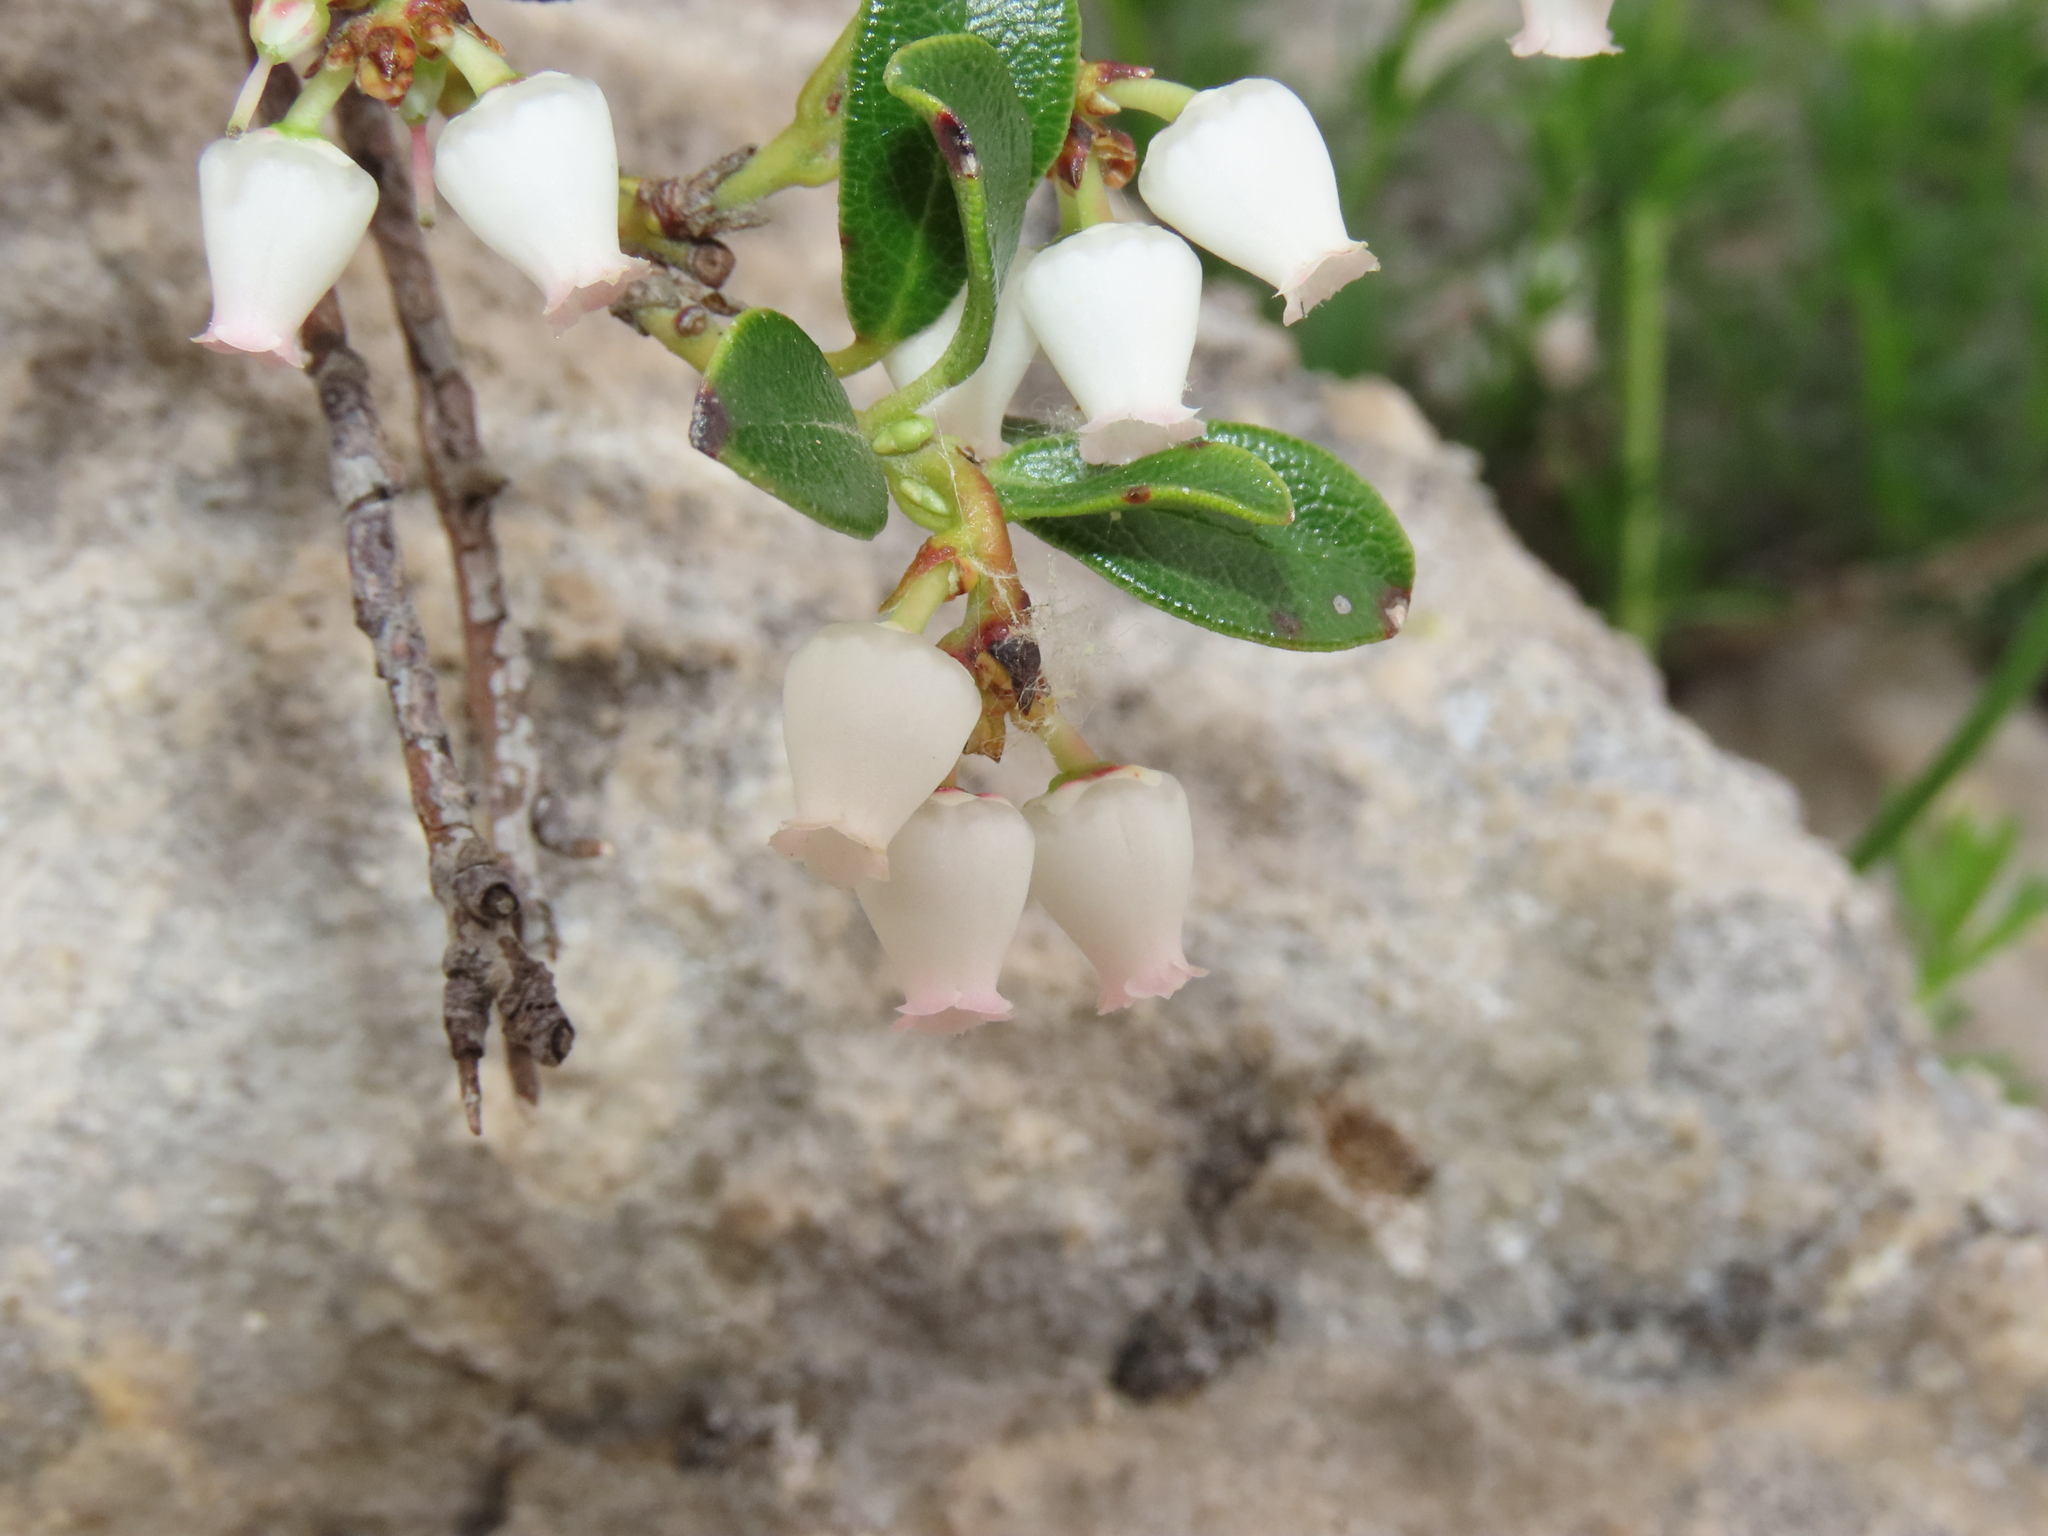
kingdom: Plantae
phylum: Tracheophyta
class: Magnoliopsida
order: Ericales
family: Ericaceae
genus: Arctostaphylos
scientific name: Arctostaphylos uva-ursi
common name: Bearberry
